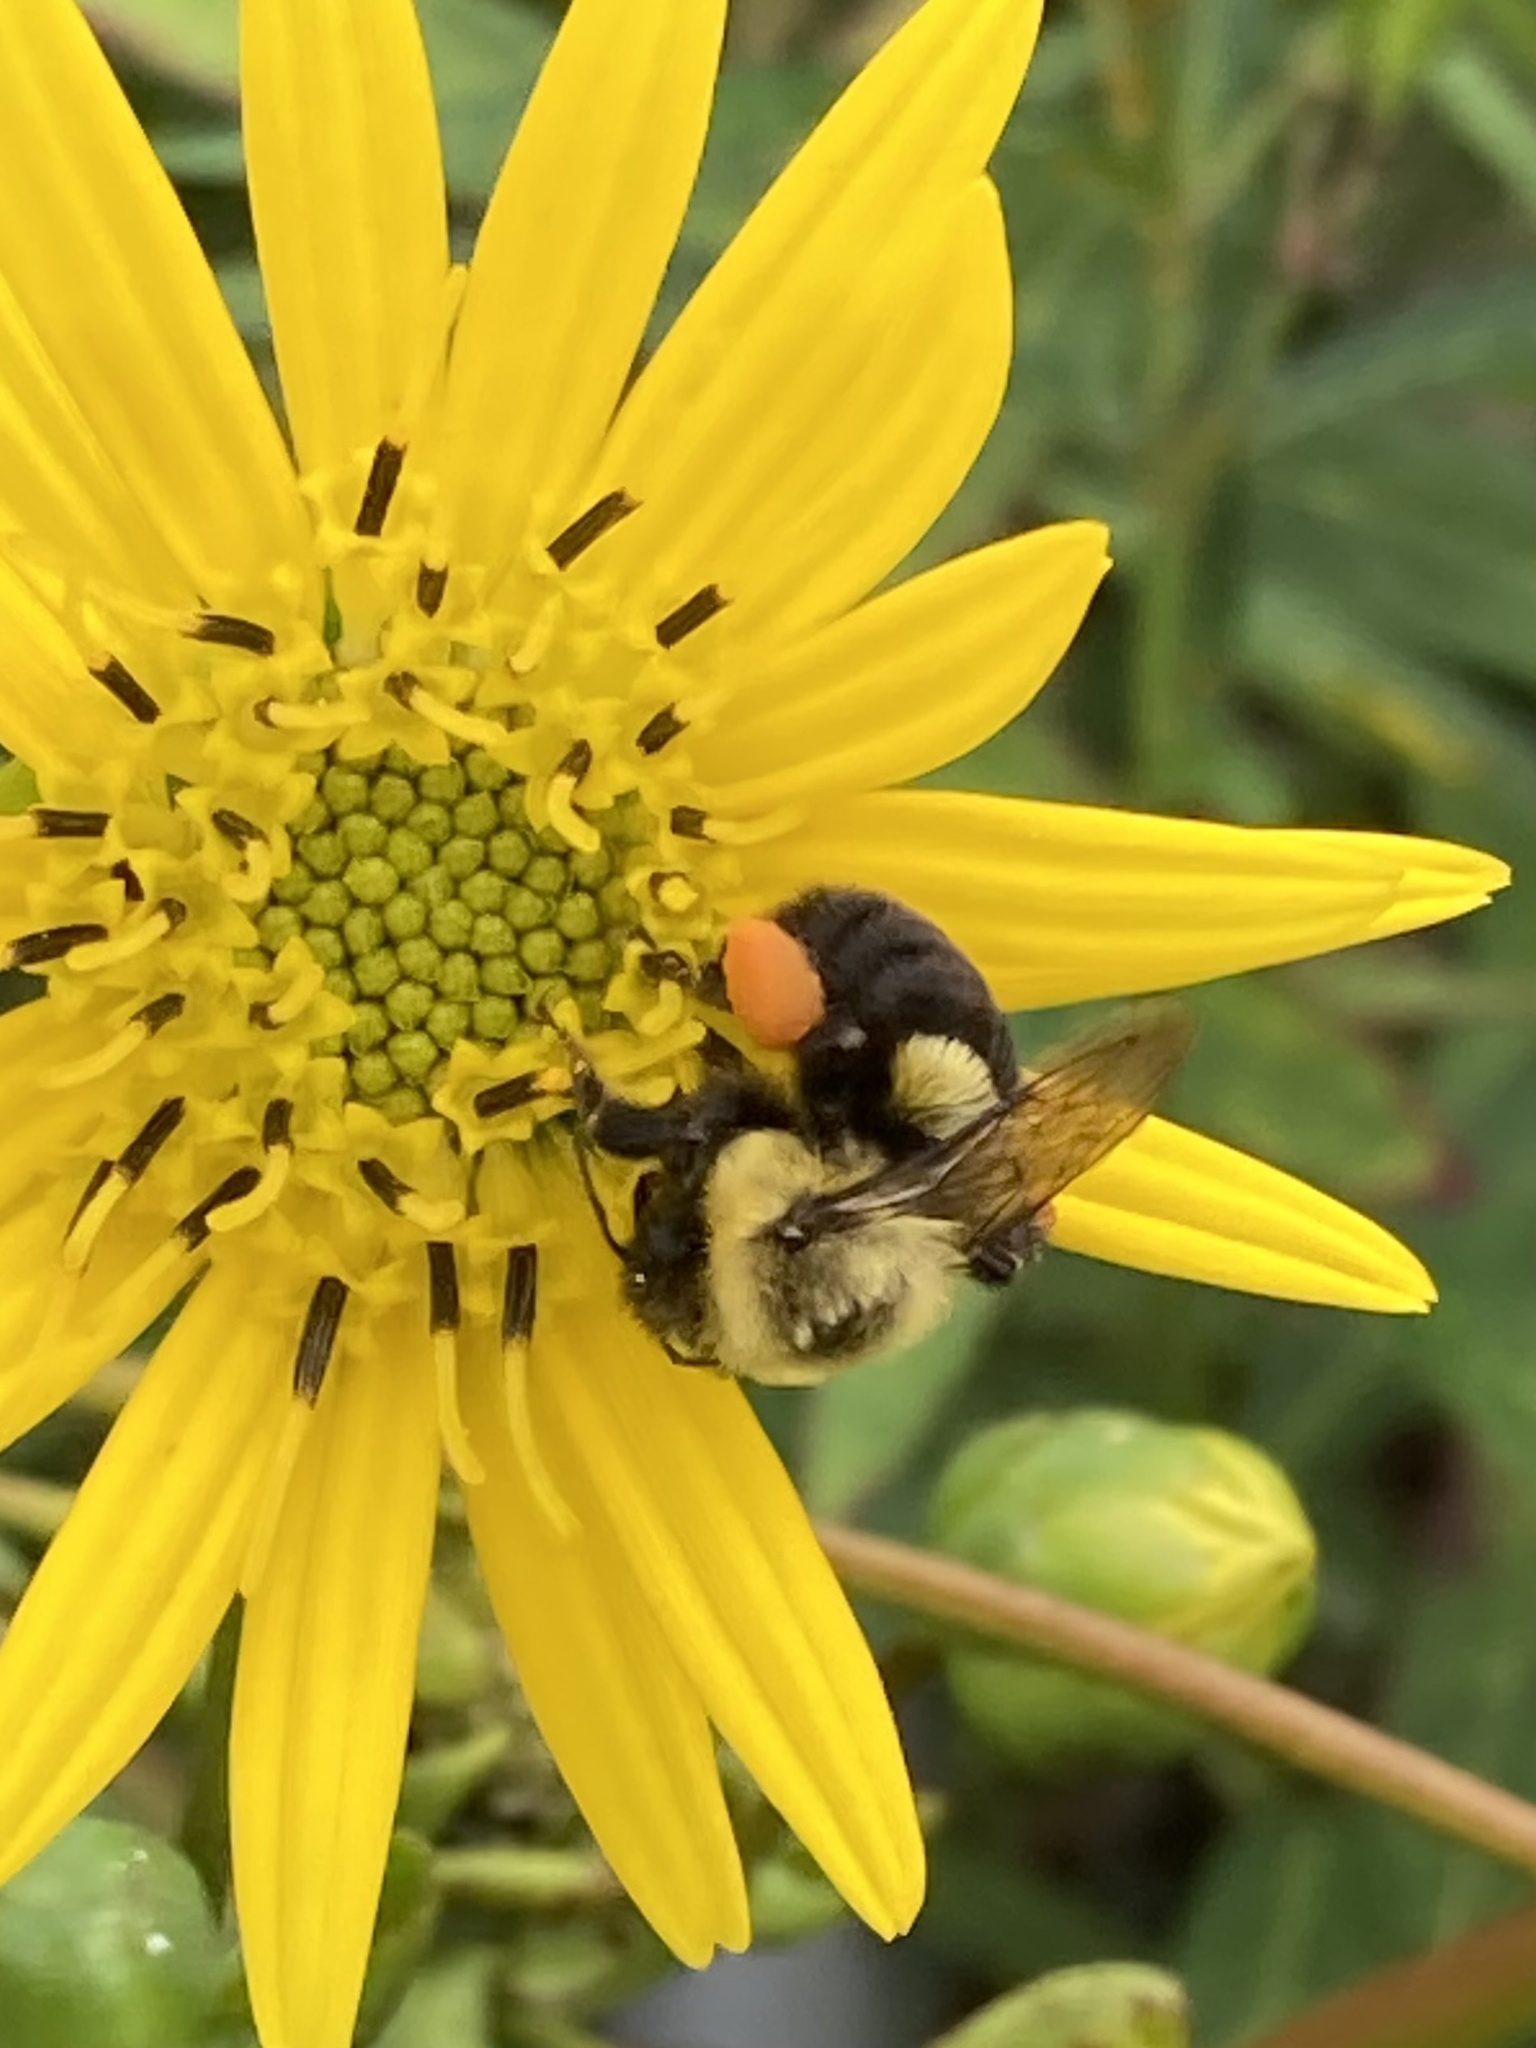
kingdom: Animalia
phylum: Arthropoda
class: Insecta
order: Hymenoptera
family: Apidae
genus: Bombus
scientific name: Bombus impatiens
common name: Common eastern bumble bee
